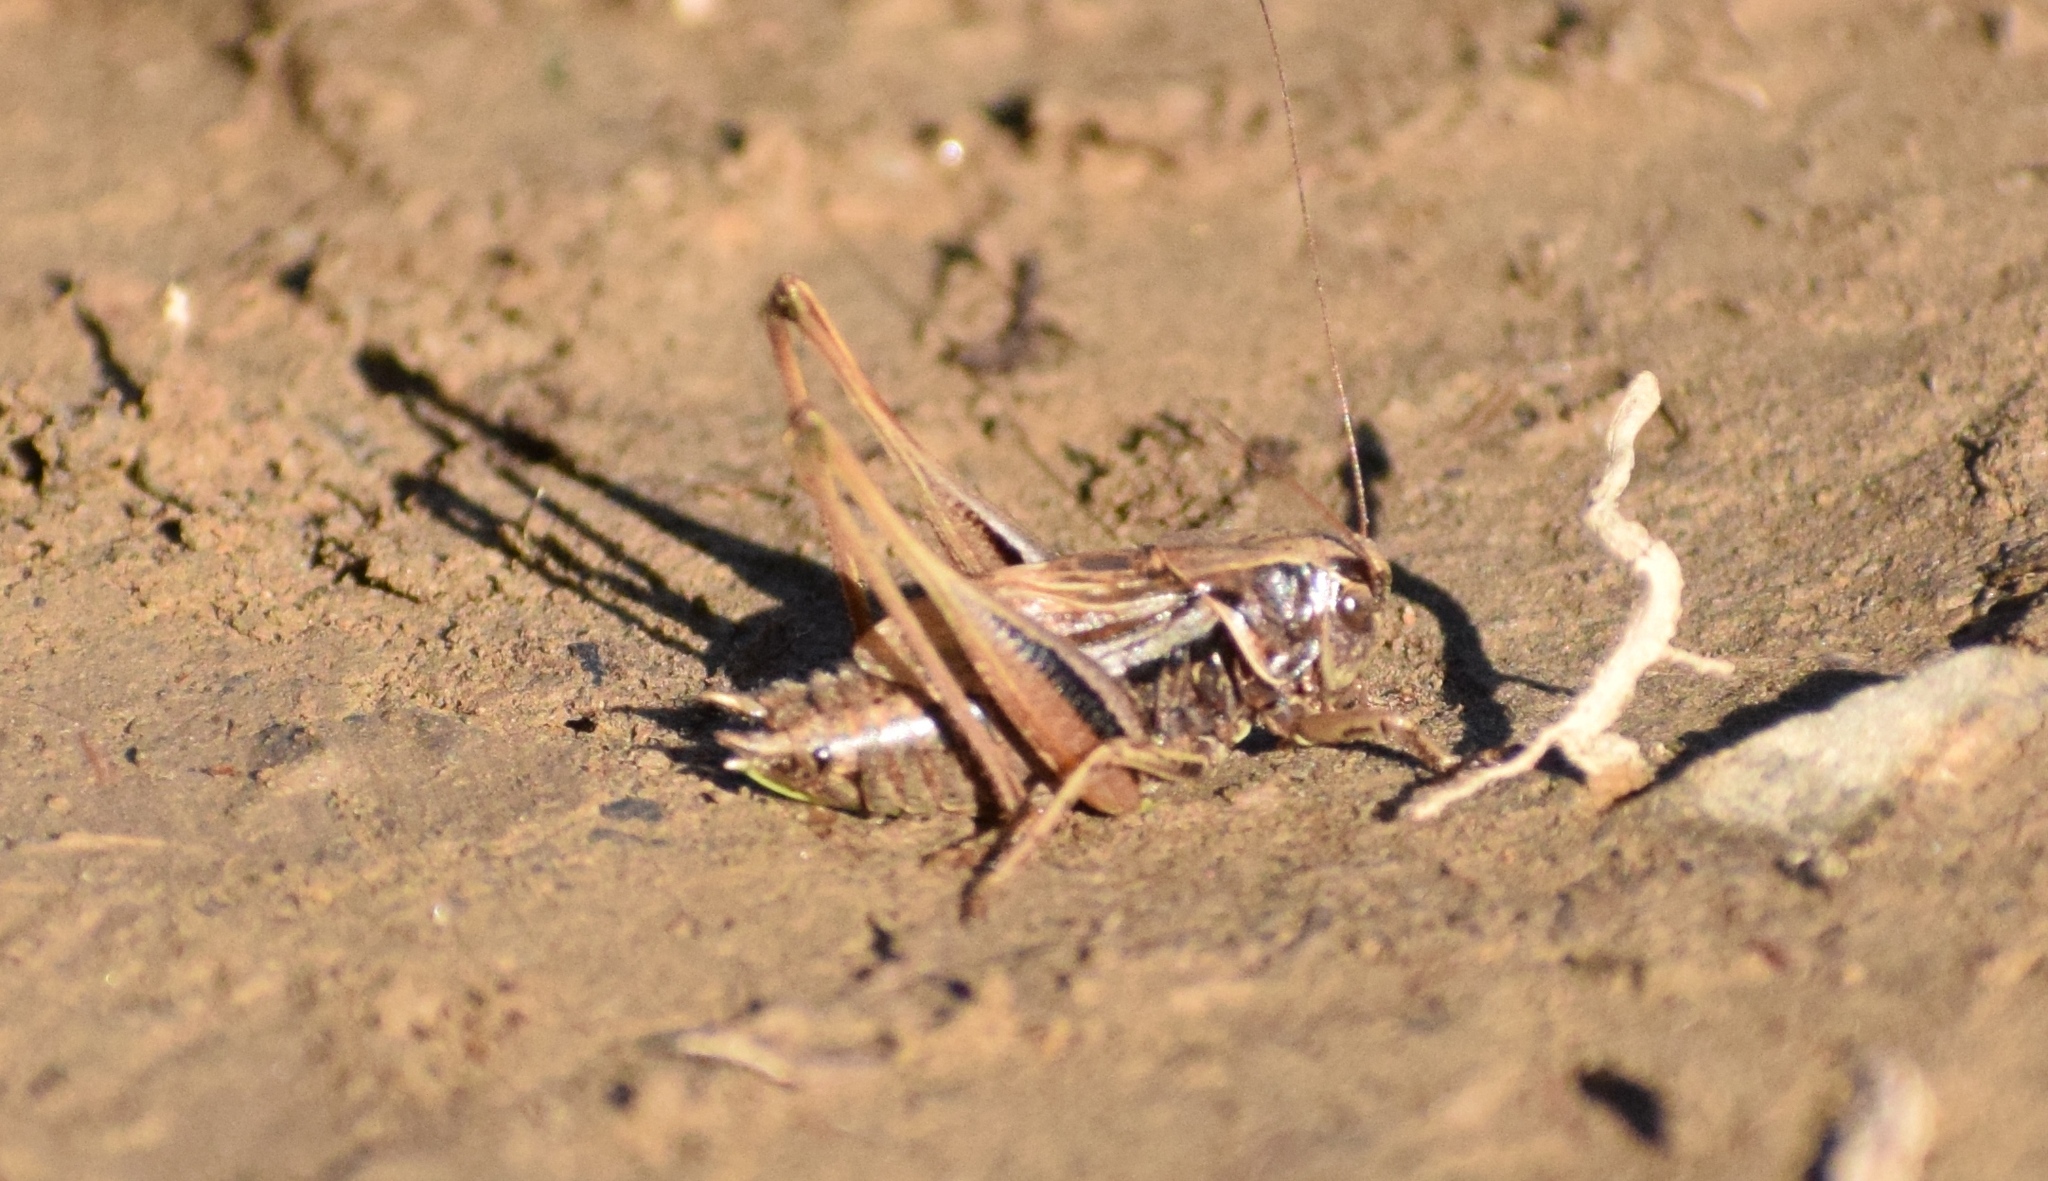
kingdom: Animalia
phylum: Arthropoda
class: Insecta
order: Orthoptera
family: Tettigoniidae
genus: Metrioptera
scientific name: Metrioptera brachyptera
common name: Bog bush-cricket
